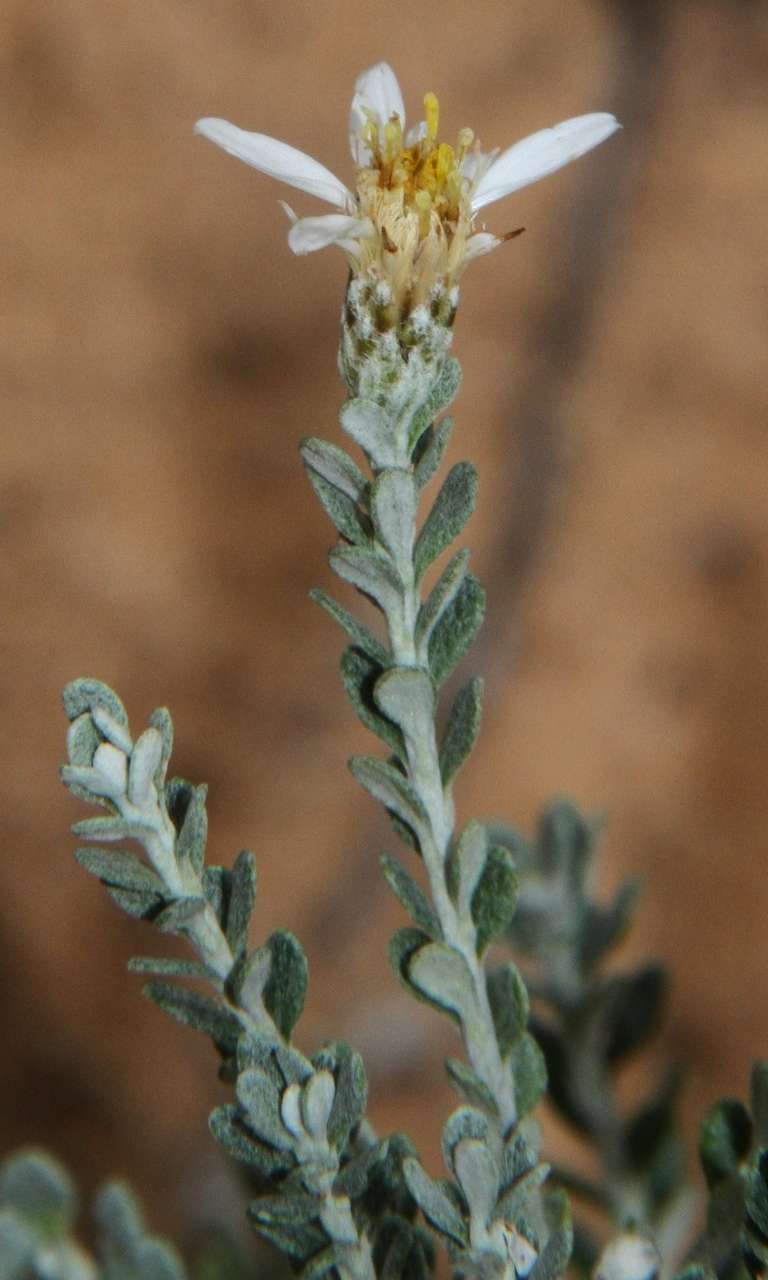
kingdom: Plantae
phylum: Tracheophyta
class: Magnoliopsida
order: Asterales
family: Asteraceae
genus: Olearia
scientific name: Olearia pimeleoides
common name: Showy daisybush
